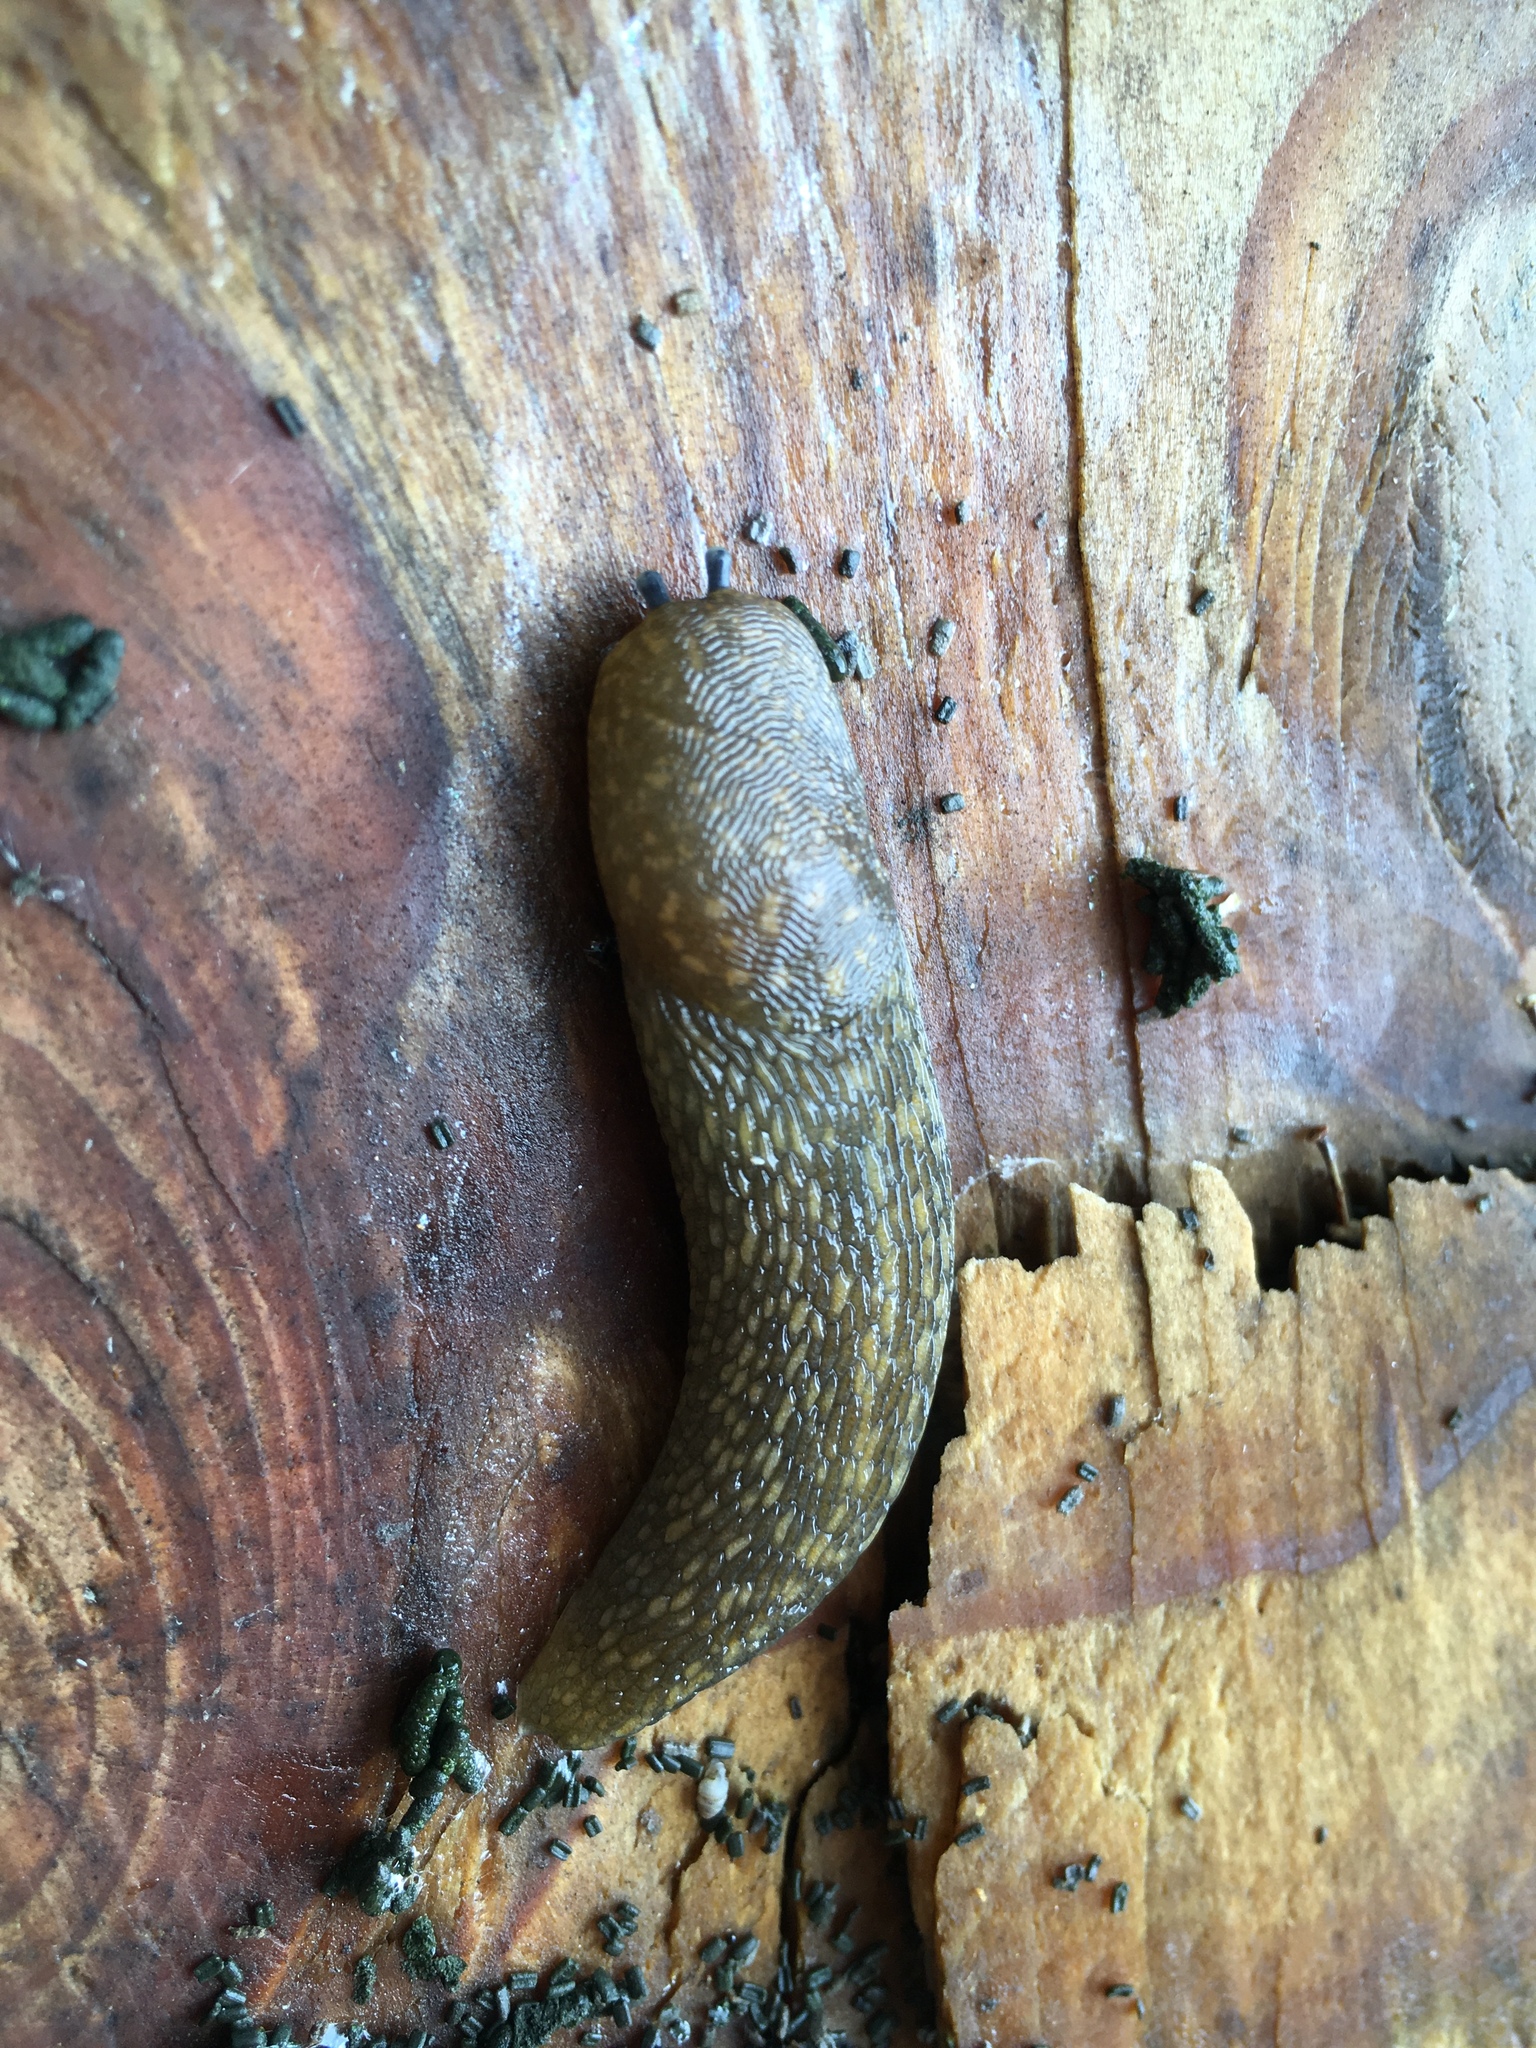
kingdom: Animalia
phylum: Mollusca
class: Gastropoda
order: Stylommatophora
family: Limacidae
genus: Limacus
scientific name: Limacus flavus
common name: Yellow gardenslug
